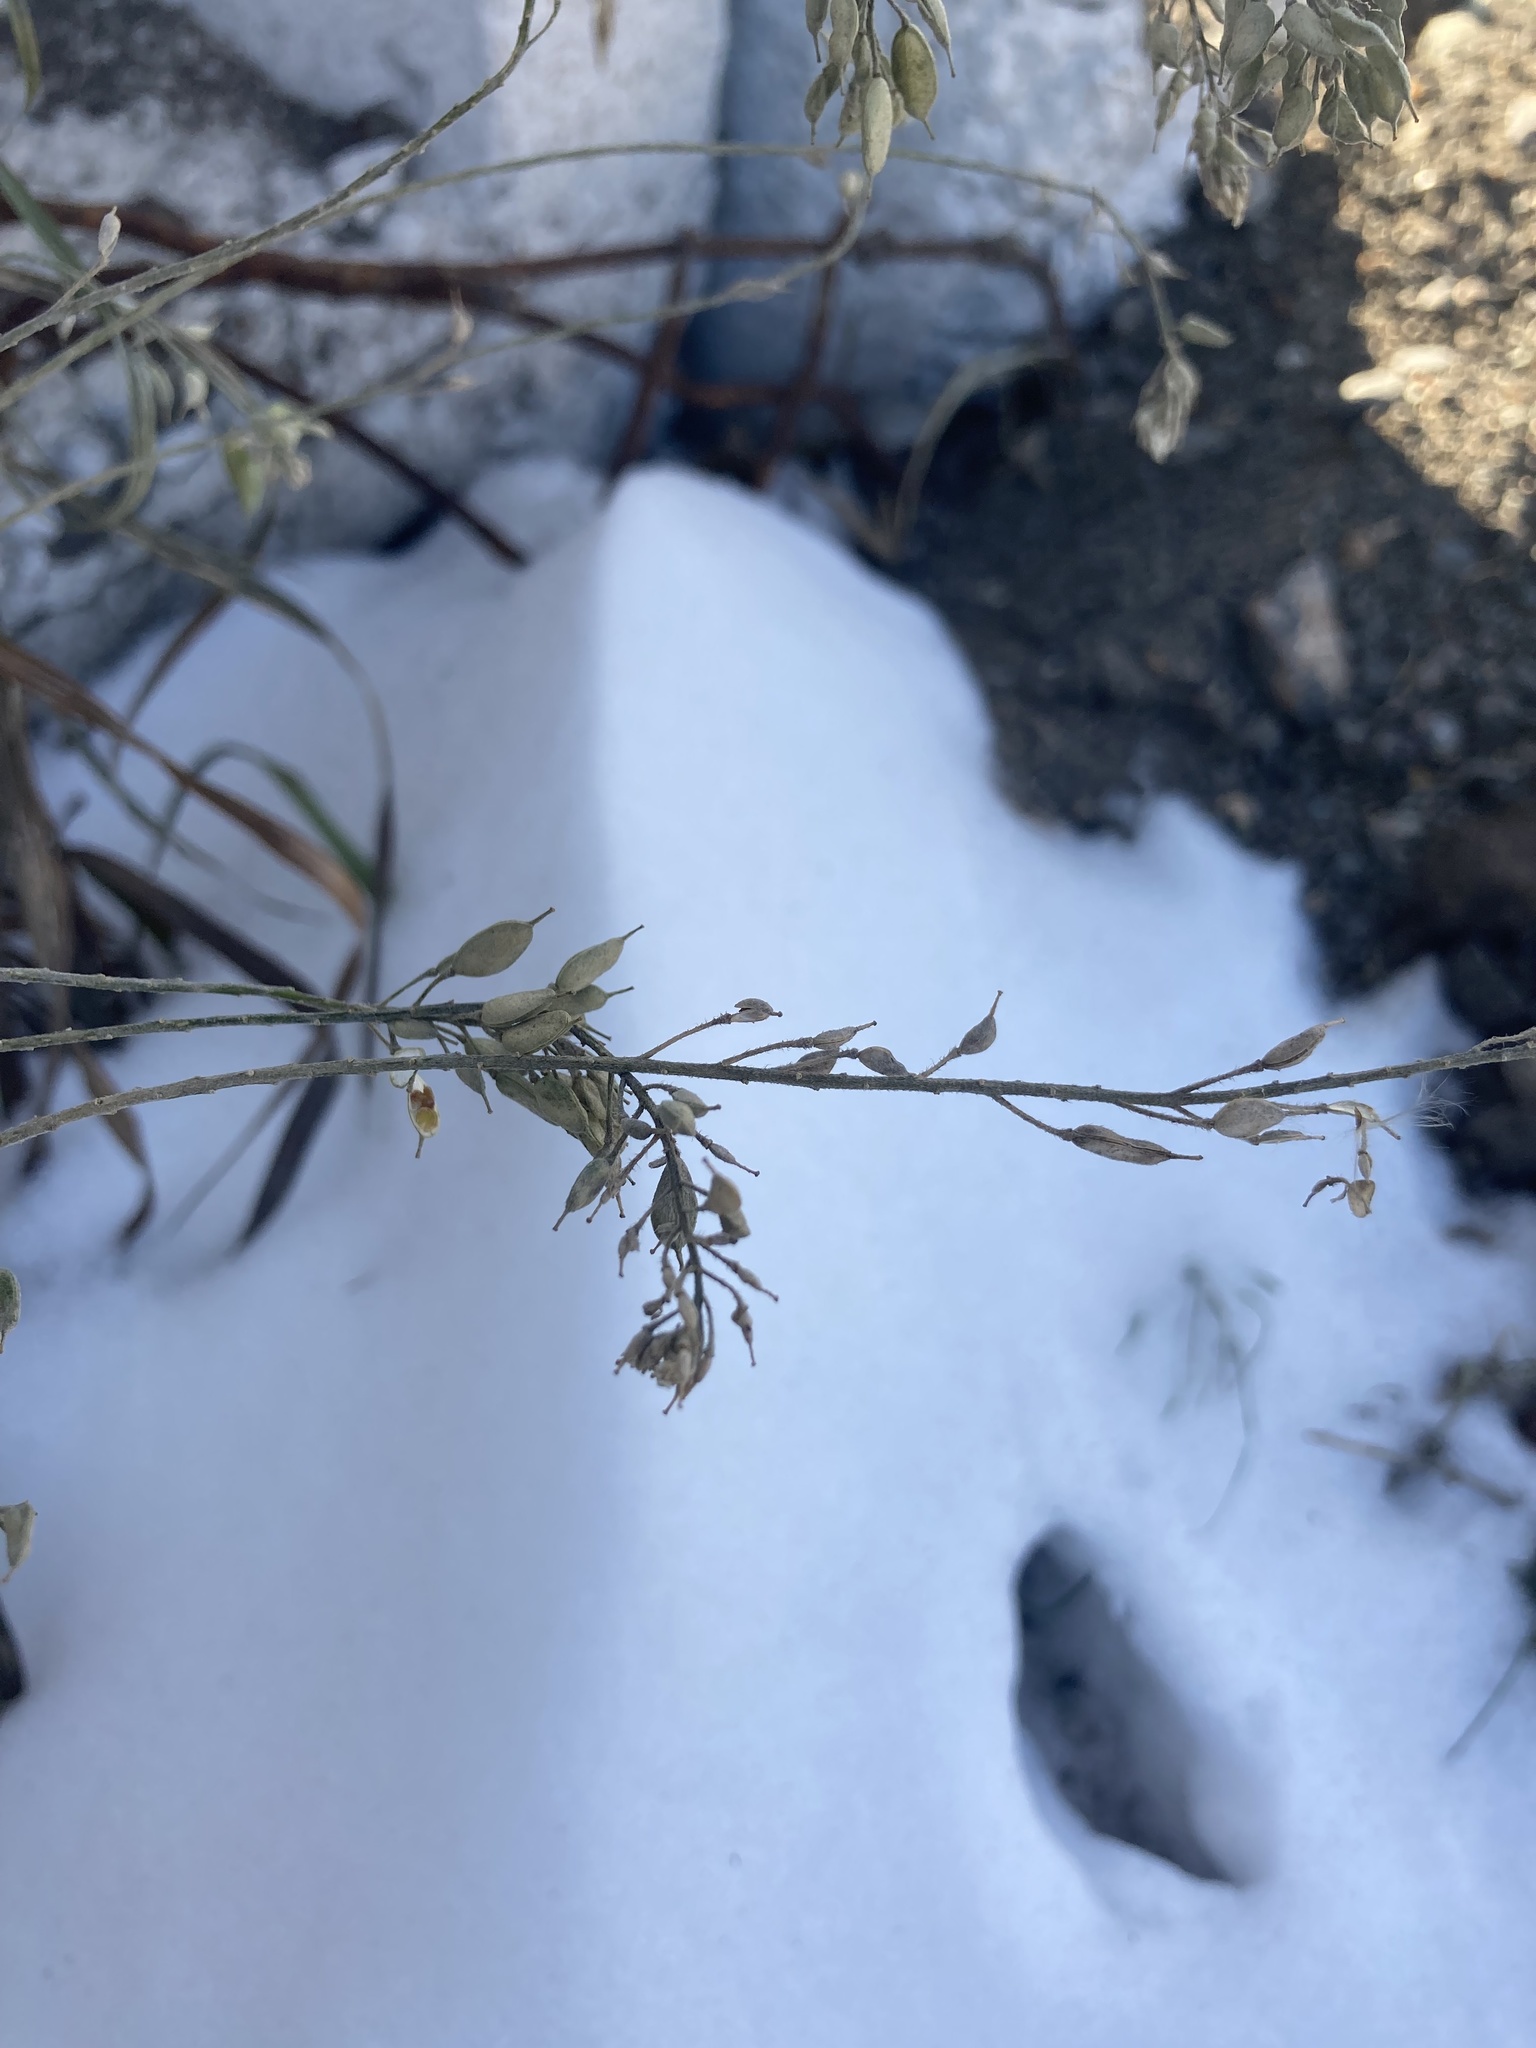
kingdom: Plantae
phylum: Tracheophyta
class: Magnoliopsida
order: Brassicales
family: Brassicaceae
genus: Berteroa
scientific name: Berteroa incana
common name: Hoary alison
